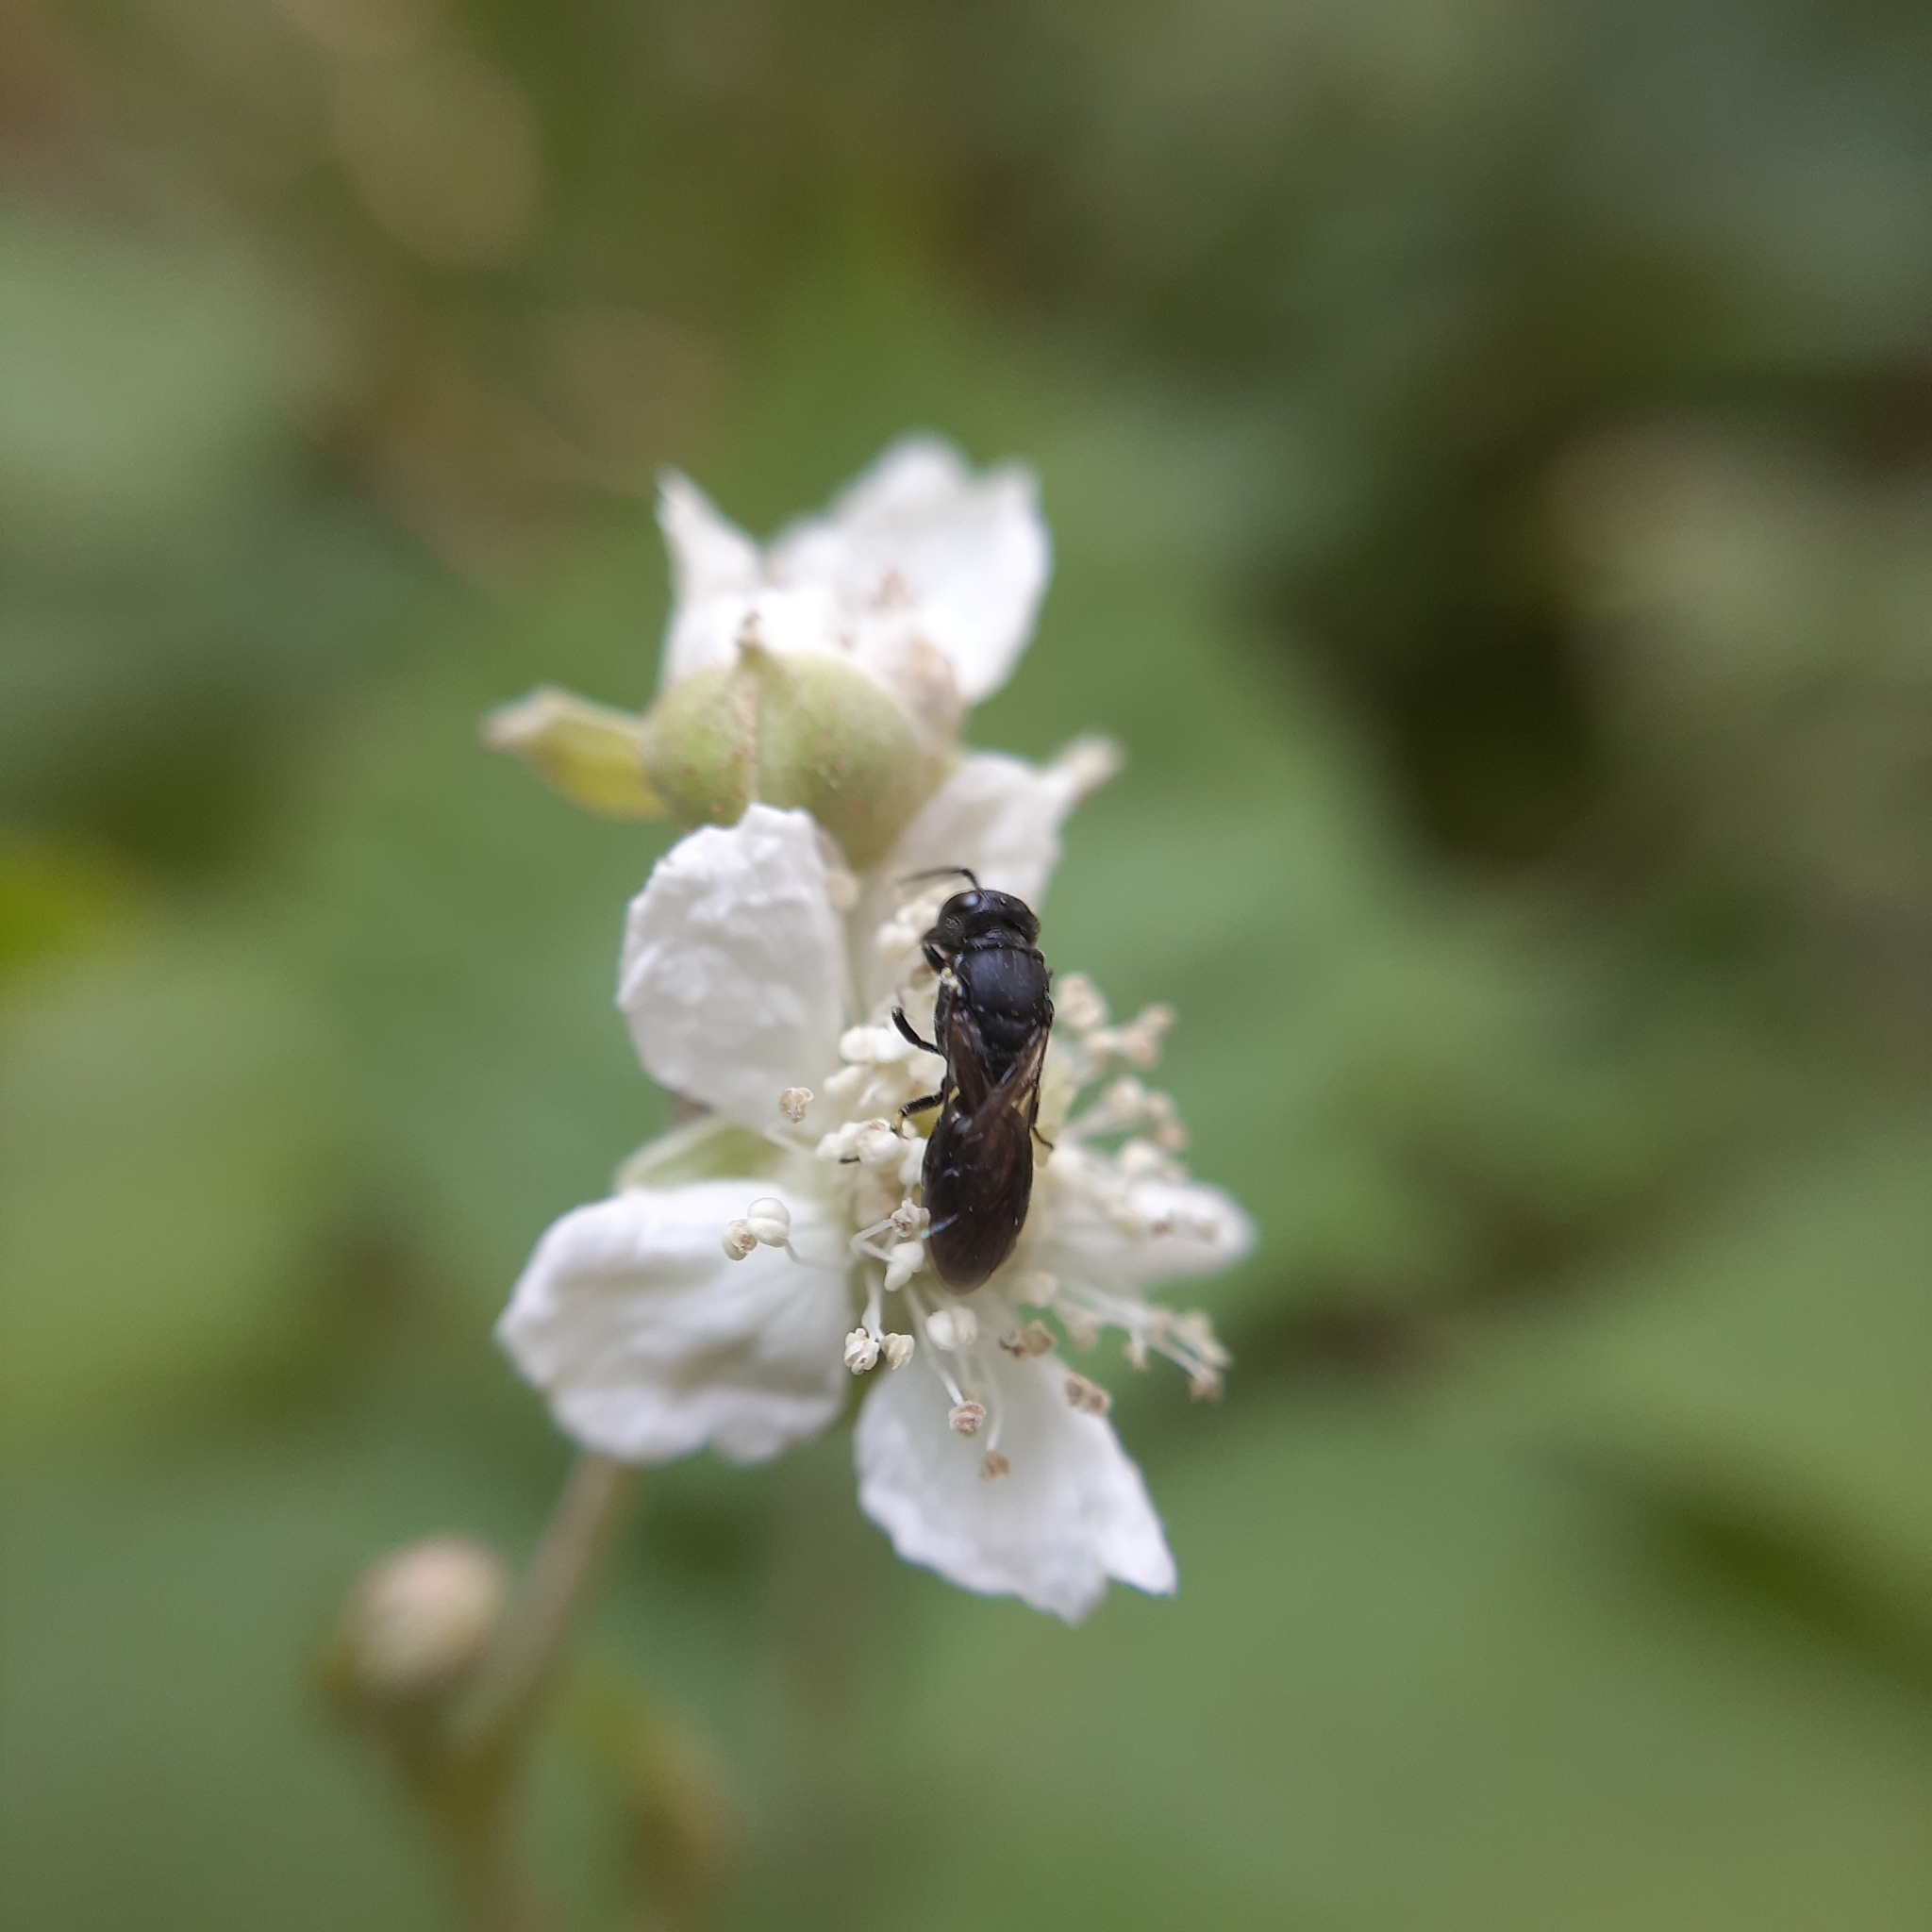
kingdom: Animalia
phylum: Arthropoda
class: Insecta
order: Hymenoptera
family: Colletidae
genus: Hylaeus
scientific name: Hylaeus
